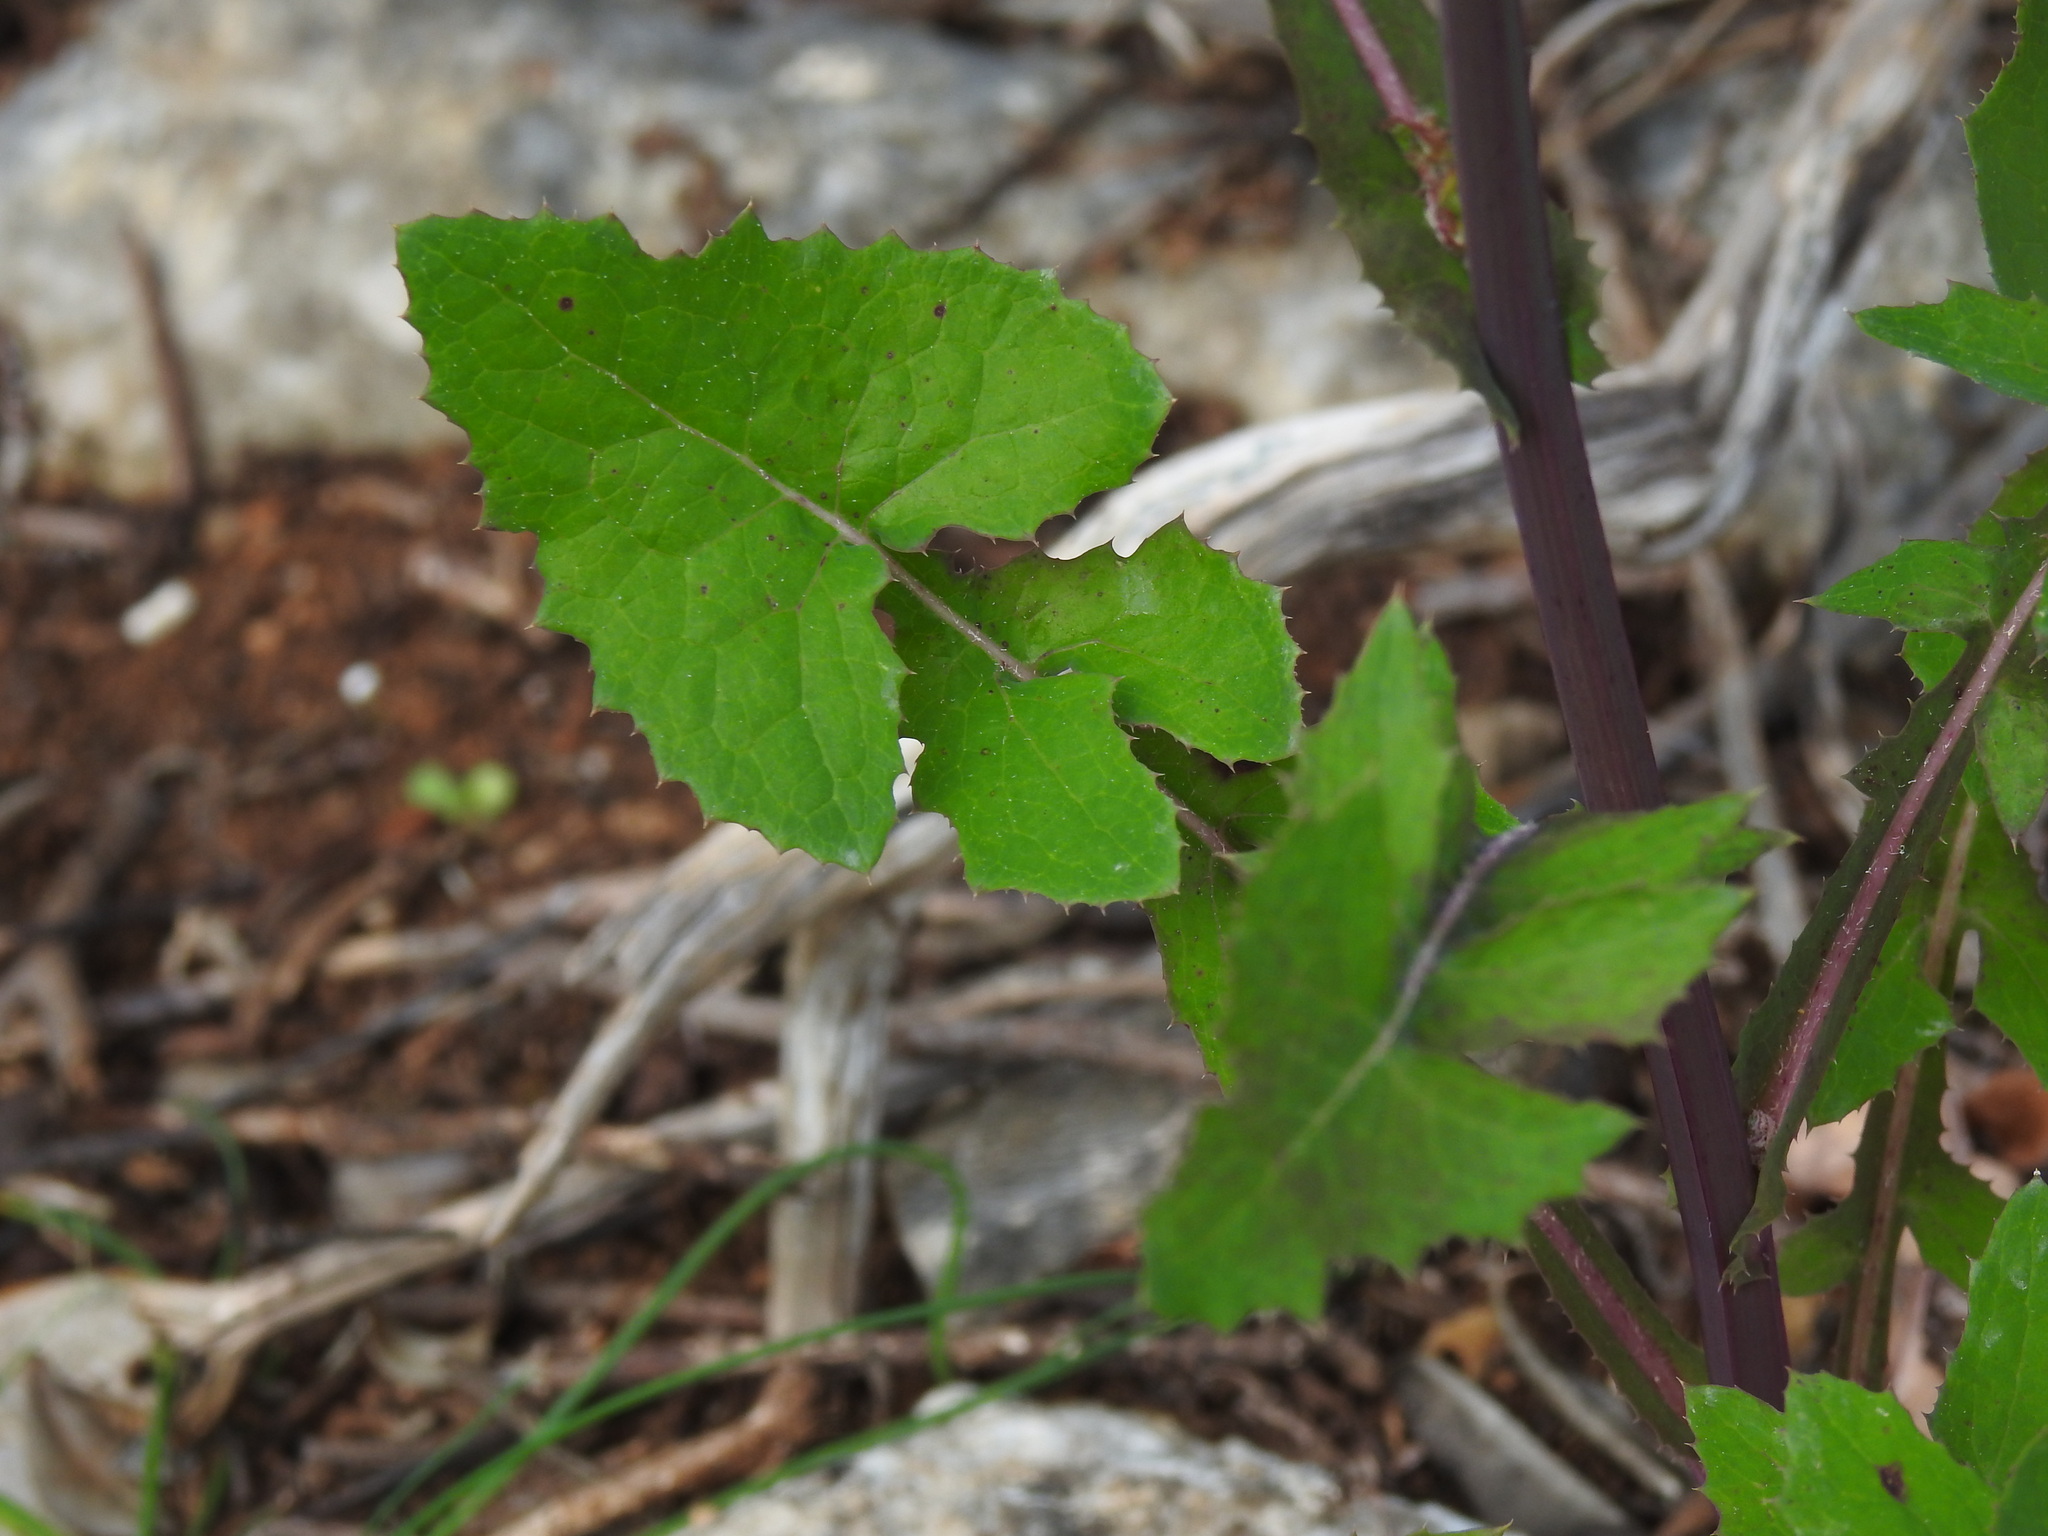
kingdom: Plantae
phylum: Tracheophyta
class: Magnoliopsida
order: Asterales
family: Asteraceae
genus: Sonchus
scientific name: Sonchus oleraceus
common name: Common sowthistle
